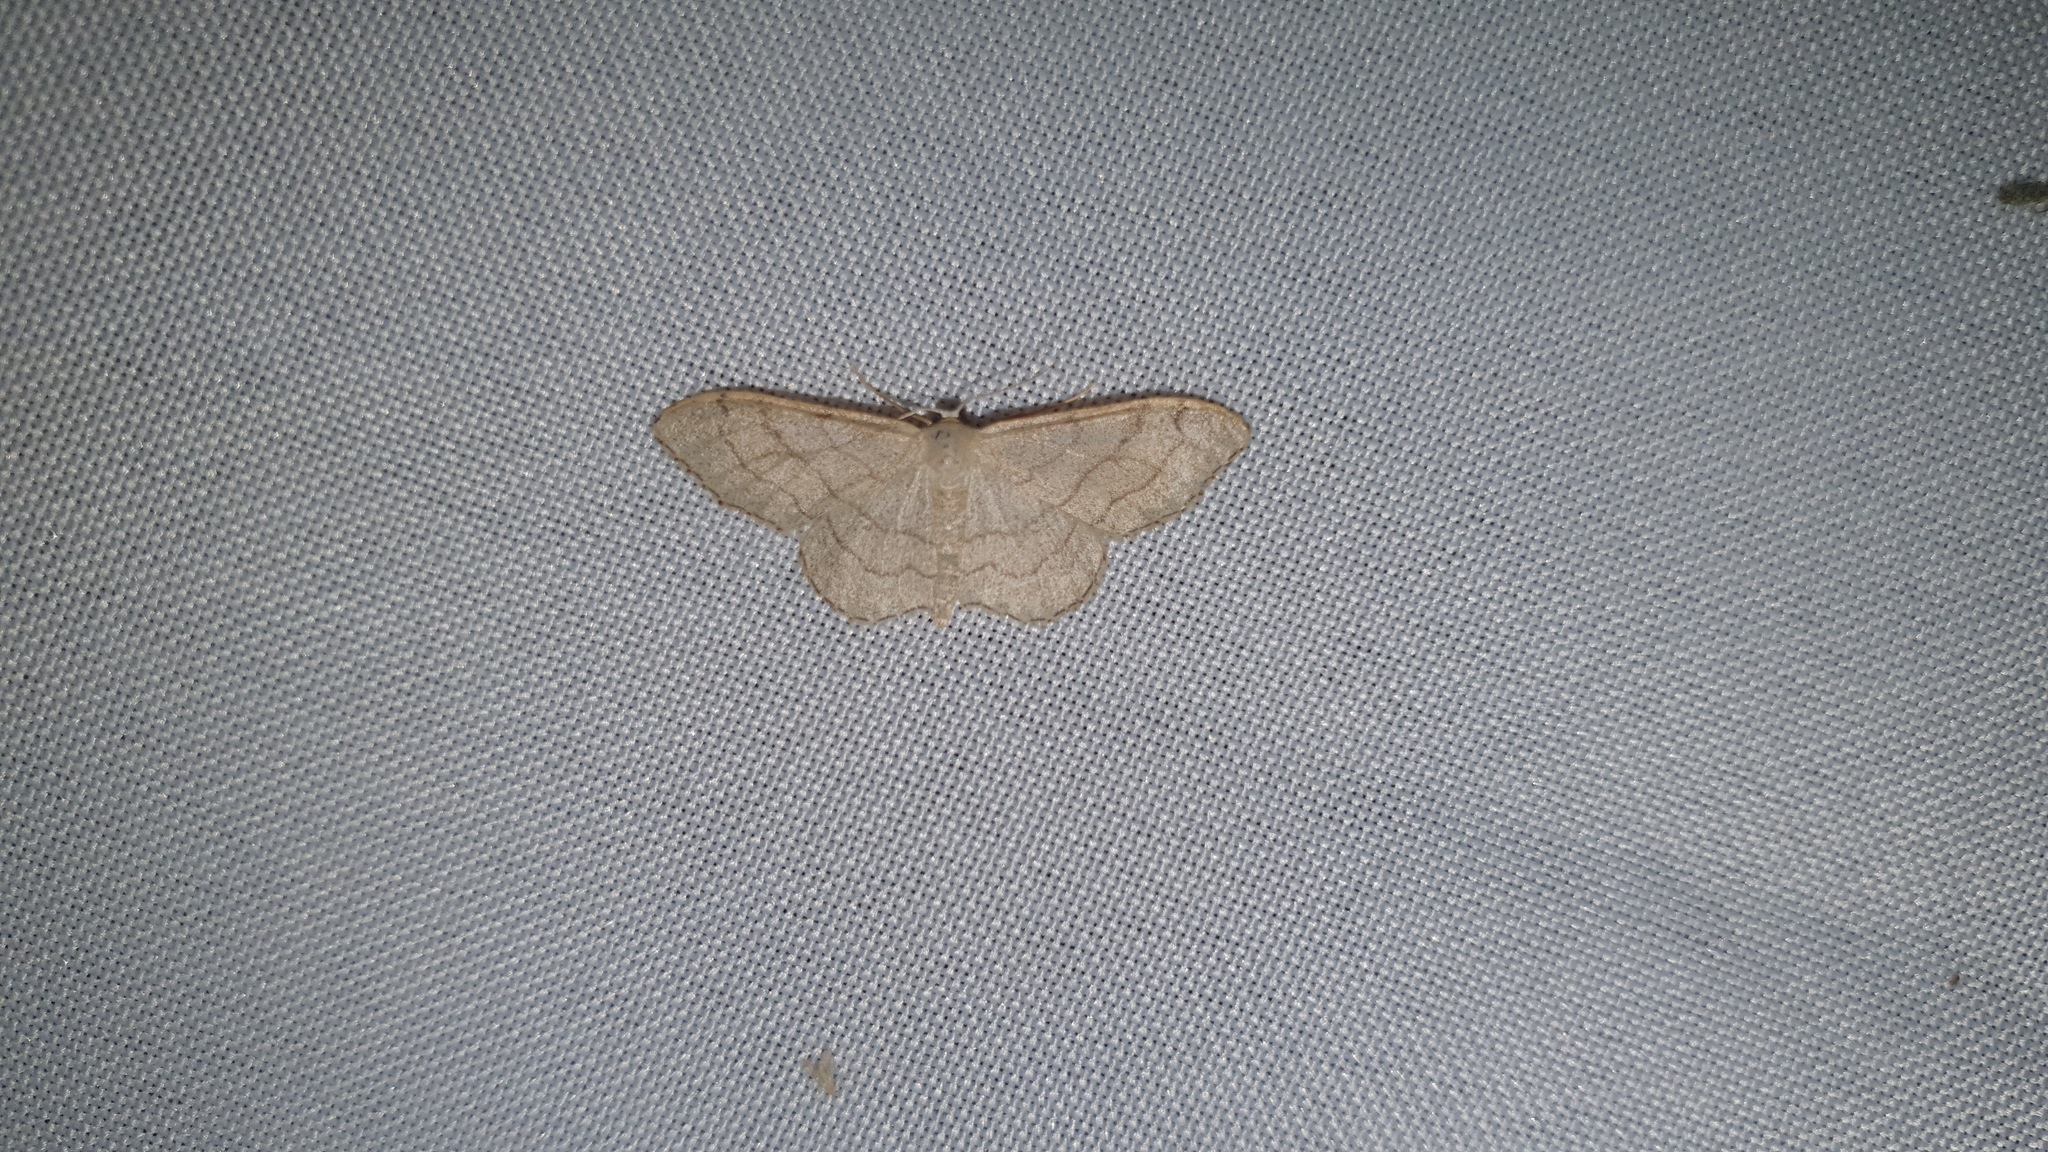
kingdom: Animalia
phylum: Arthropoda
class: Insecta
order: Lepidoptera
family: Geometridae
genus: Idaea
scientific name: Idaea aversata
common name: Riband wave
